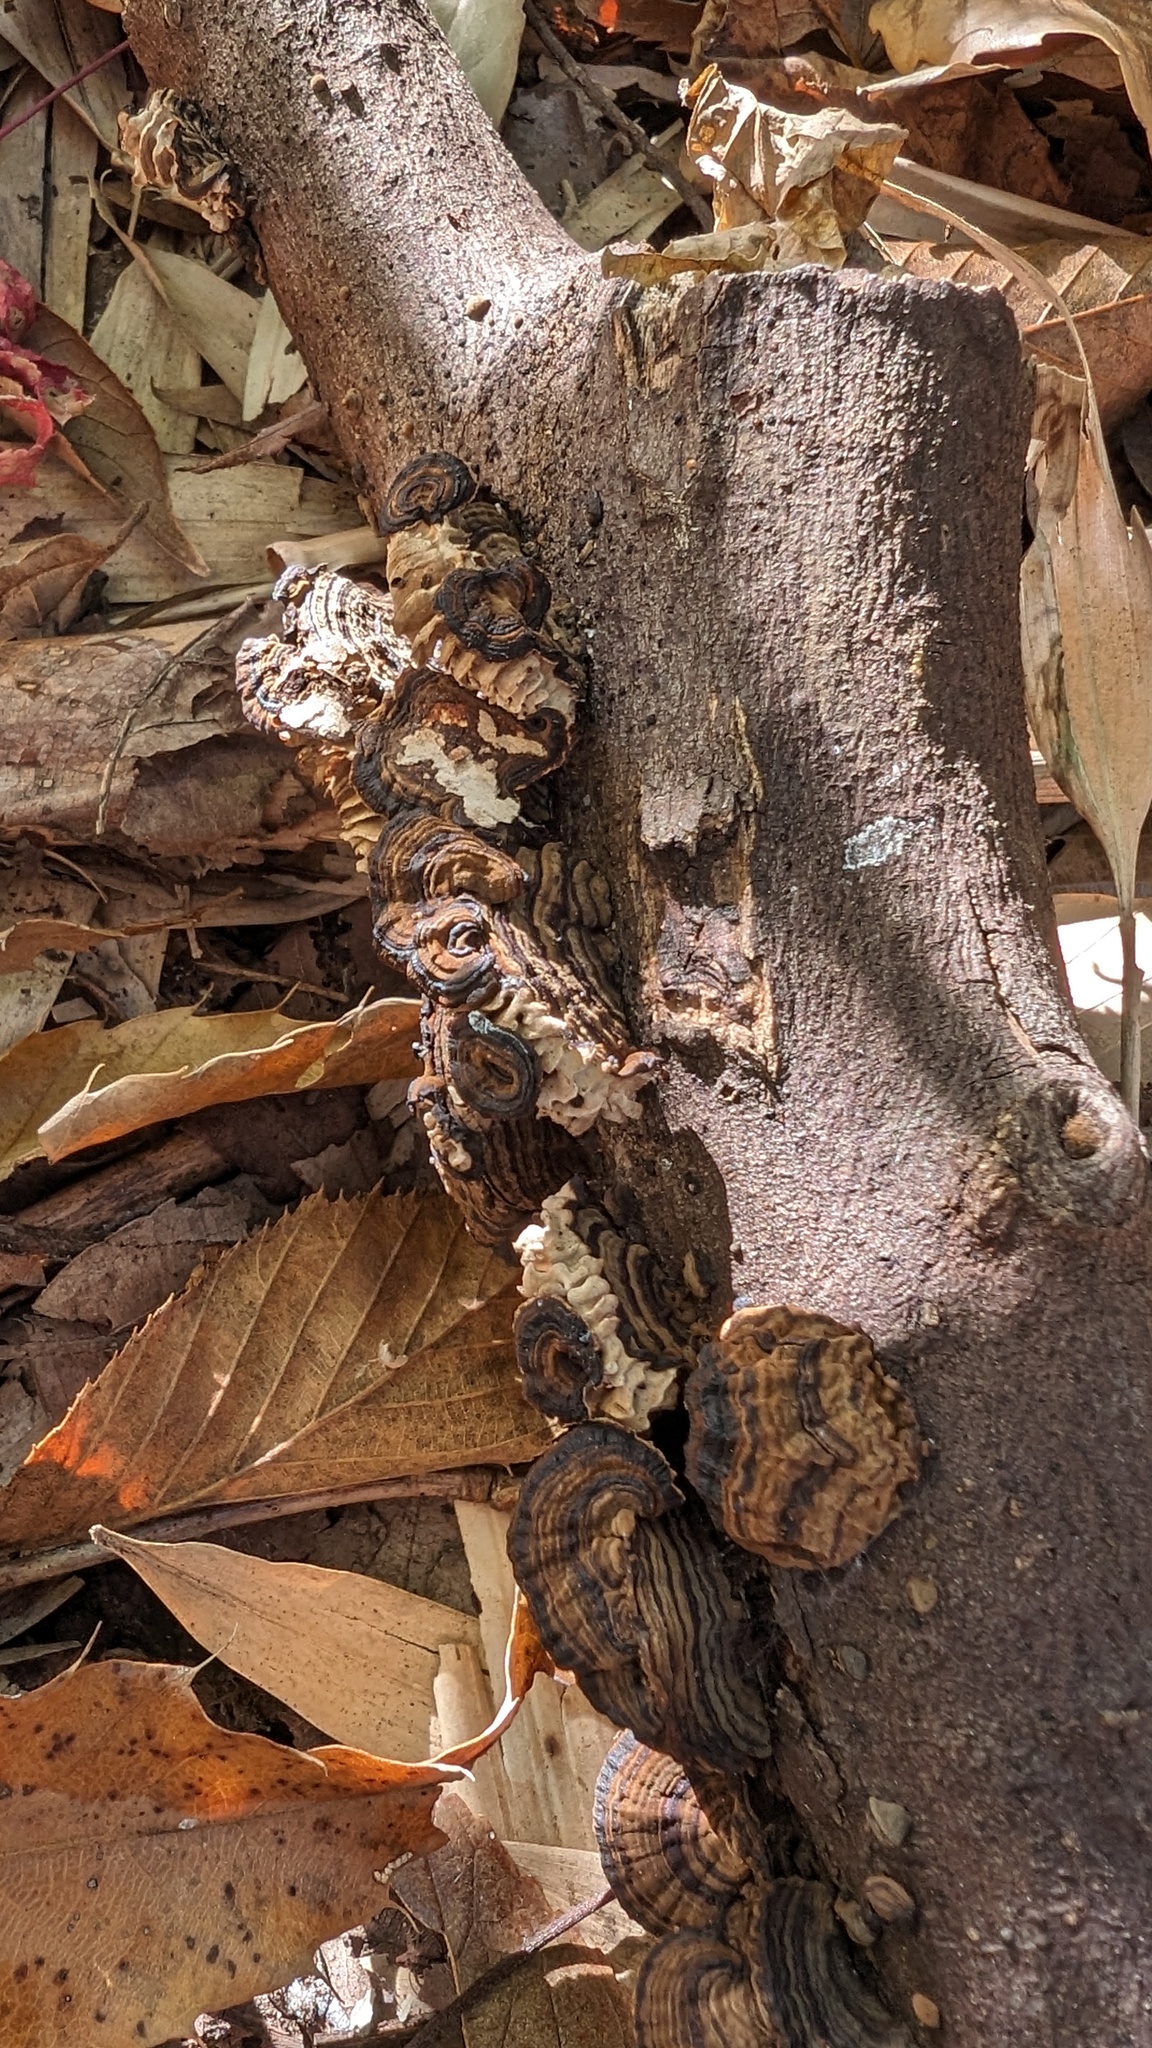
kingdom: Fungi
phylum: Basidiomycota
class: Agaricomycetes
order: Polyporales
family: Polyporaceae
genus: Lenzites
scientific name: Lenzites styracinus
